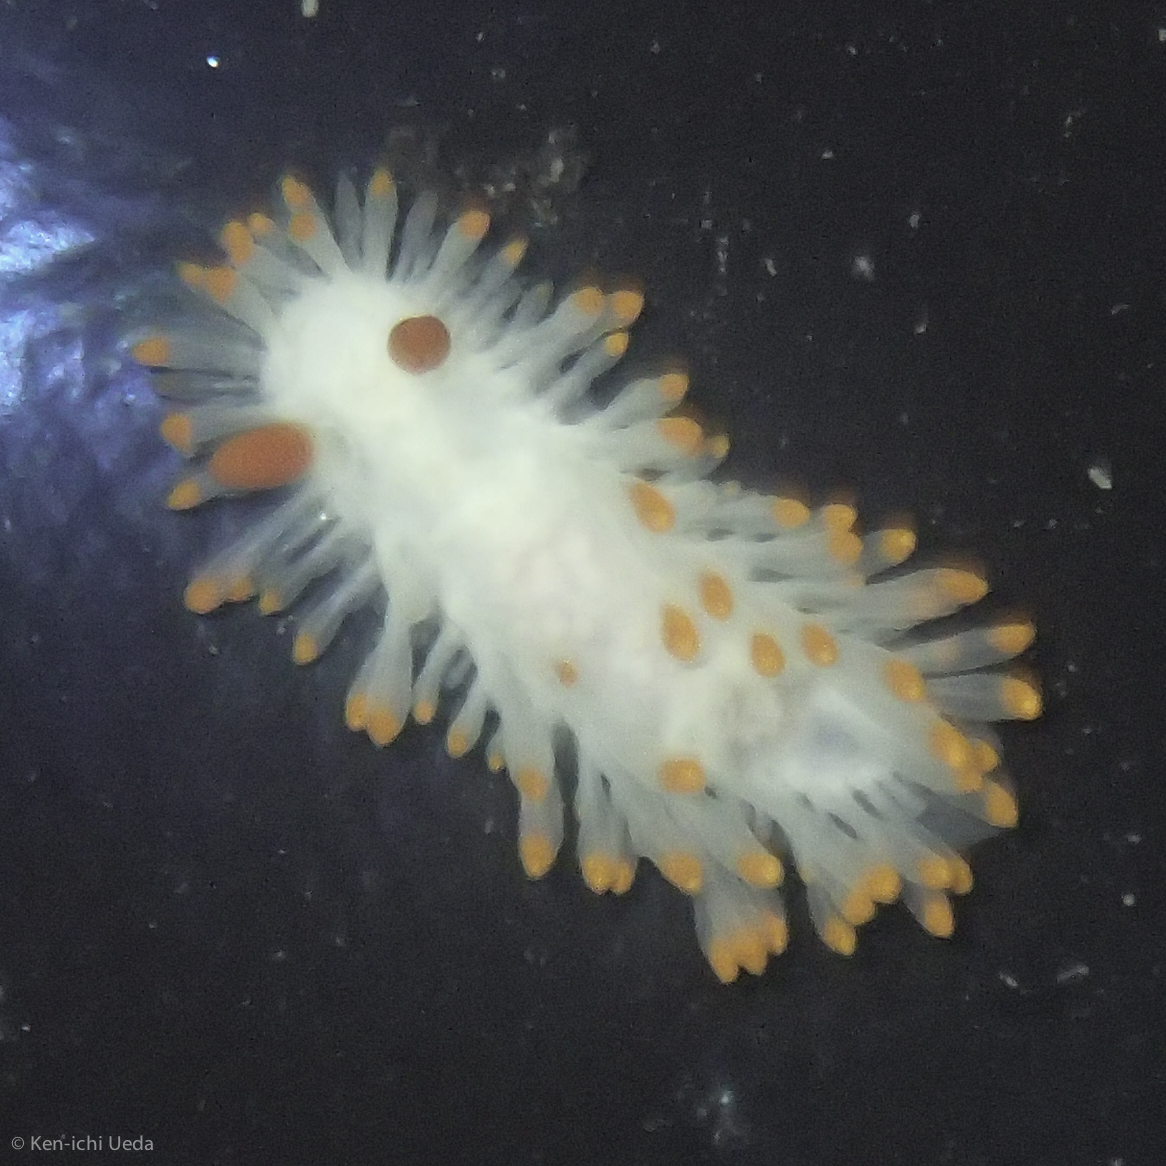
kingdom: Animalia
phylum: Mollusca
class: Gastropoda
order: Nudibranchia
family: Polyceridae
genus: Limacia
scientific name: Limacia cockerelli
